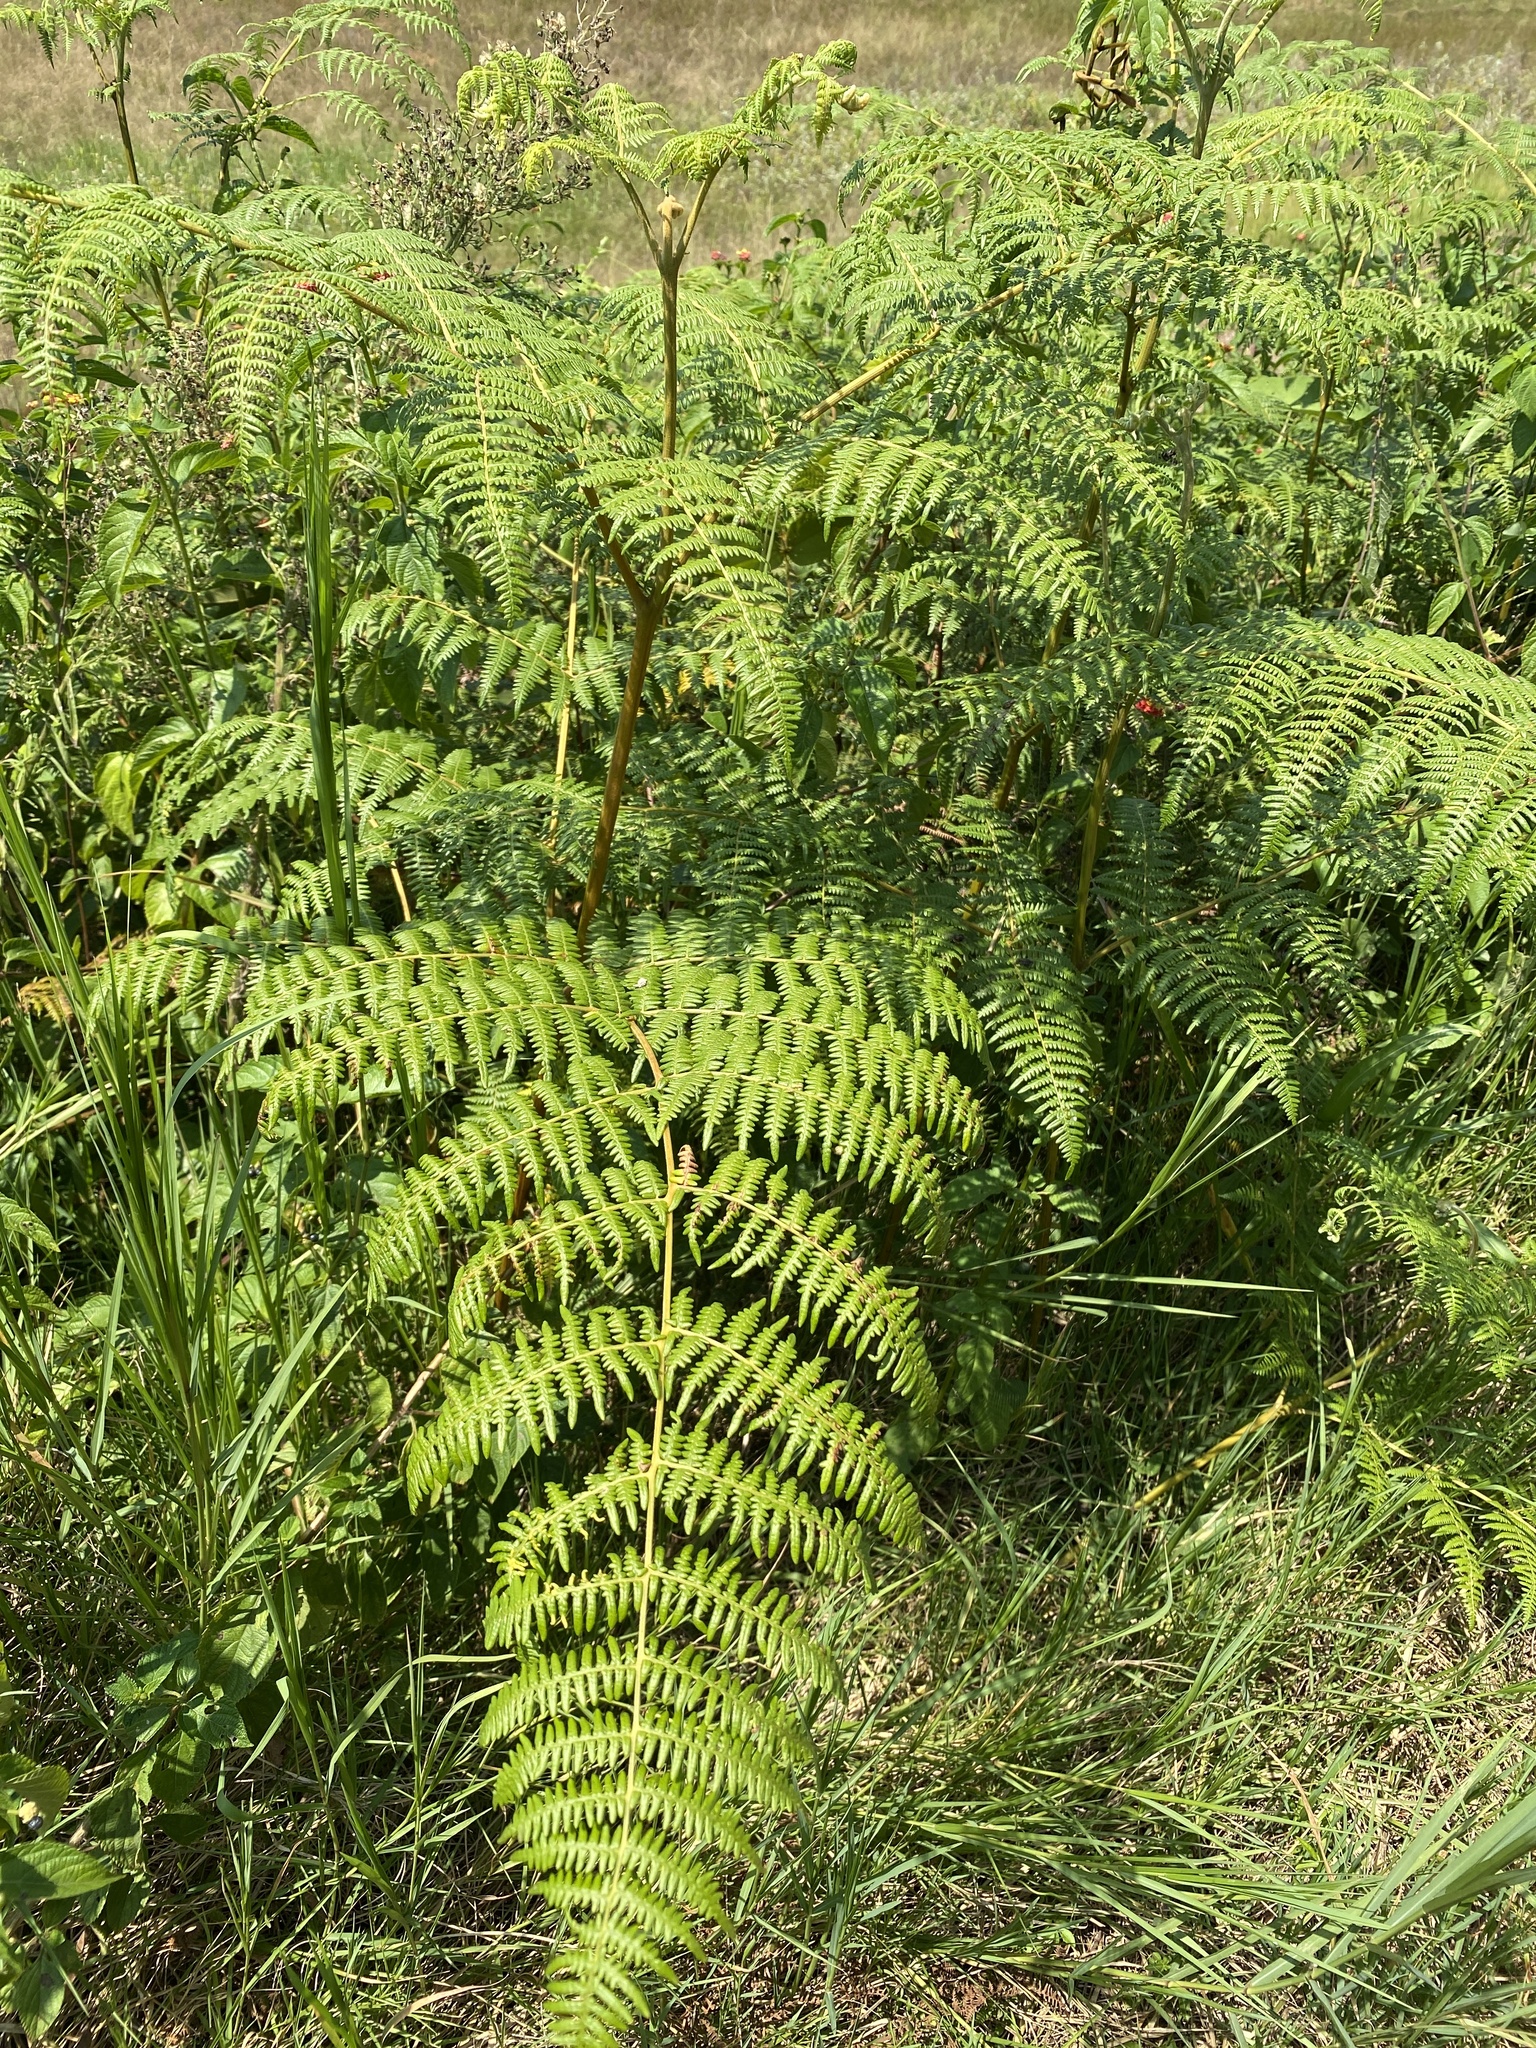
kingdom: Plantae
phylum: Tracheophyta
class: Polypodiopsida
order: Polypodiales
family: Dennstaedtiaceae
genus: Pteridium
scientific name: Pteridium aquilinum
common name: Bracken
